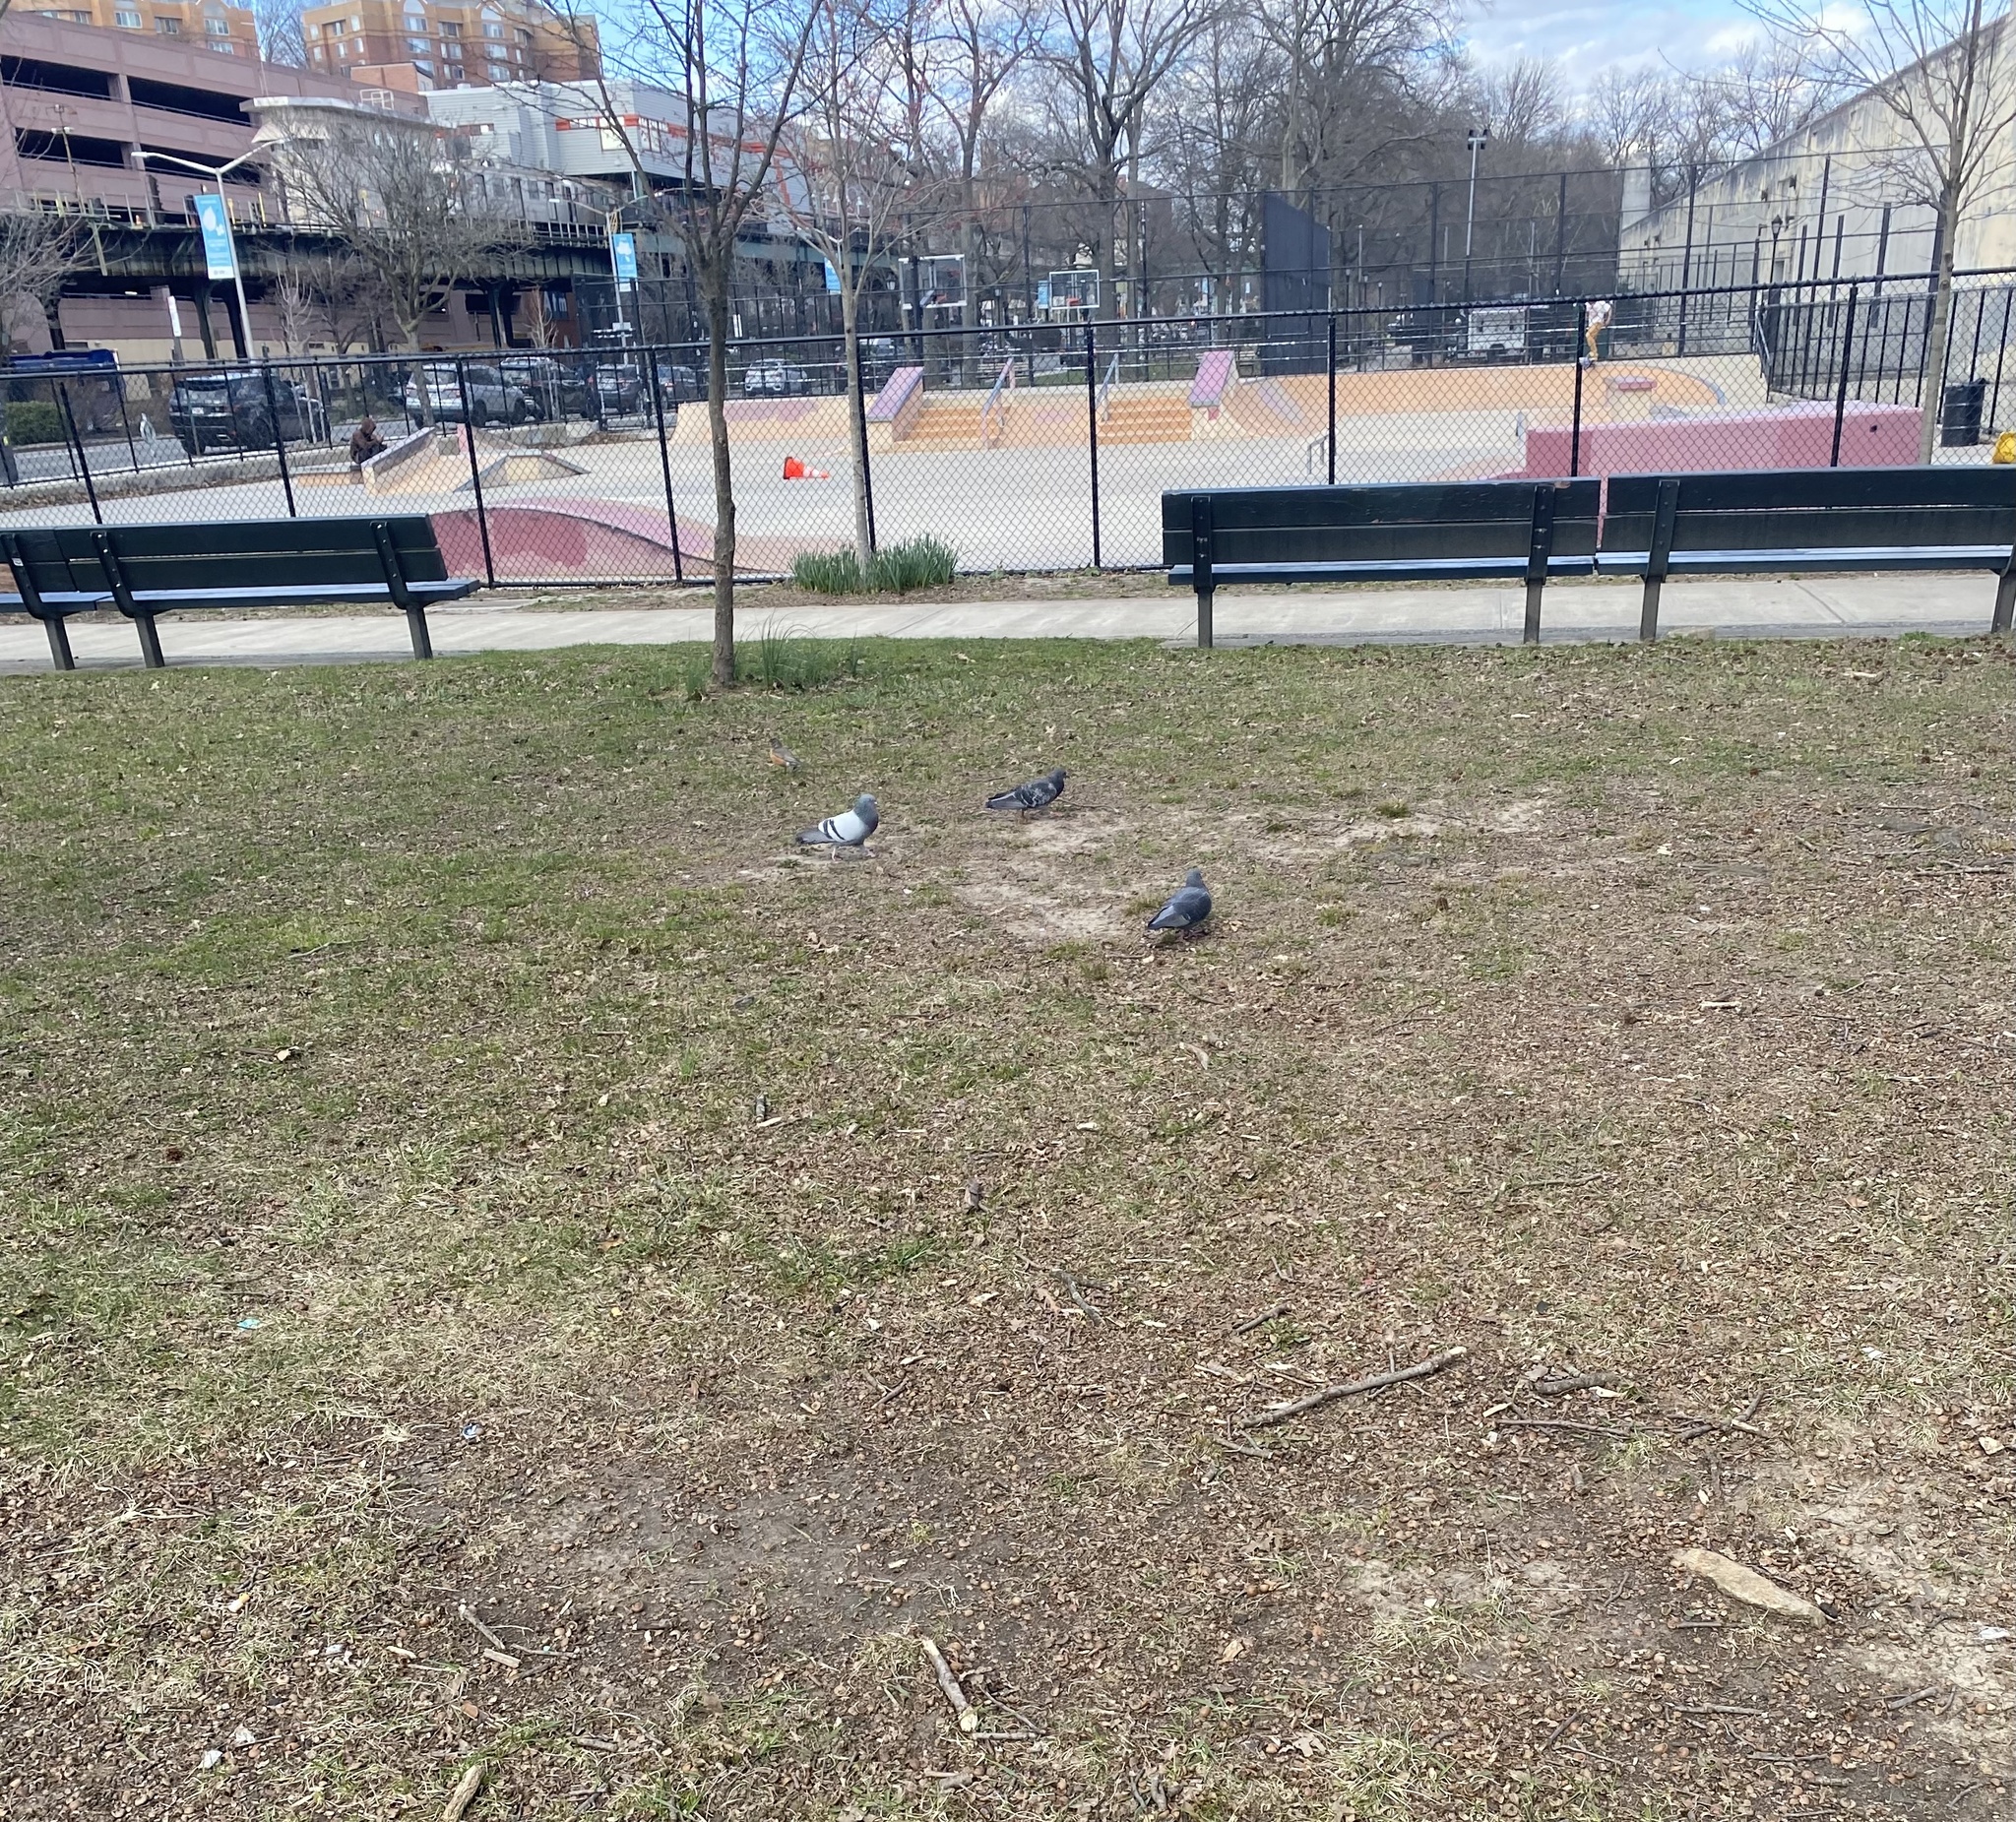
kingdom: Animalia
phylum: Chordata
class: Aves
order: Columbiformes
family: Columbidae
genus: Columba
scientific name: Columba livia
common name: Rock pigeon
